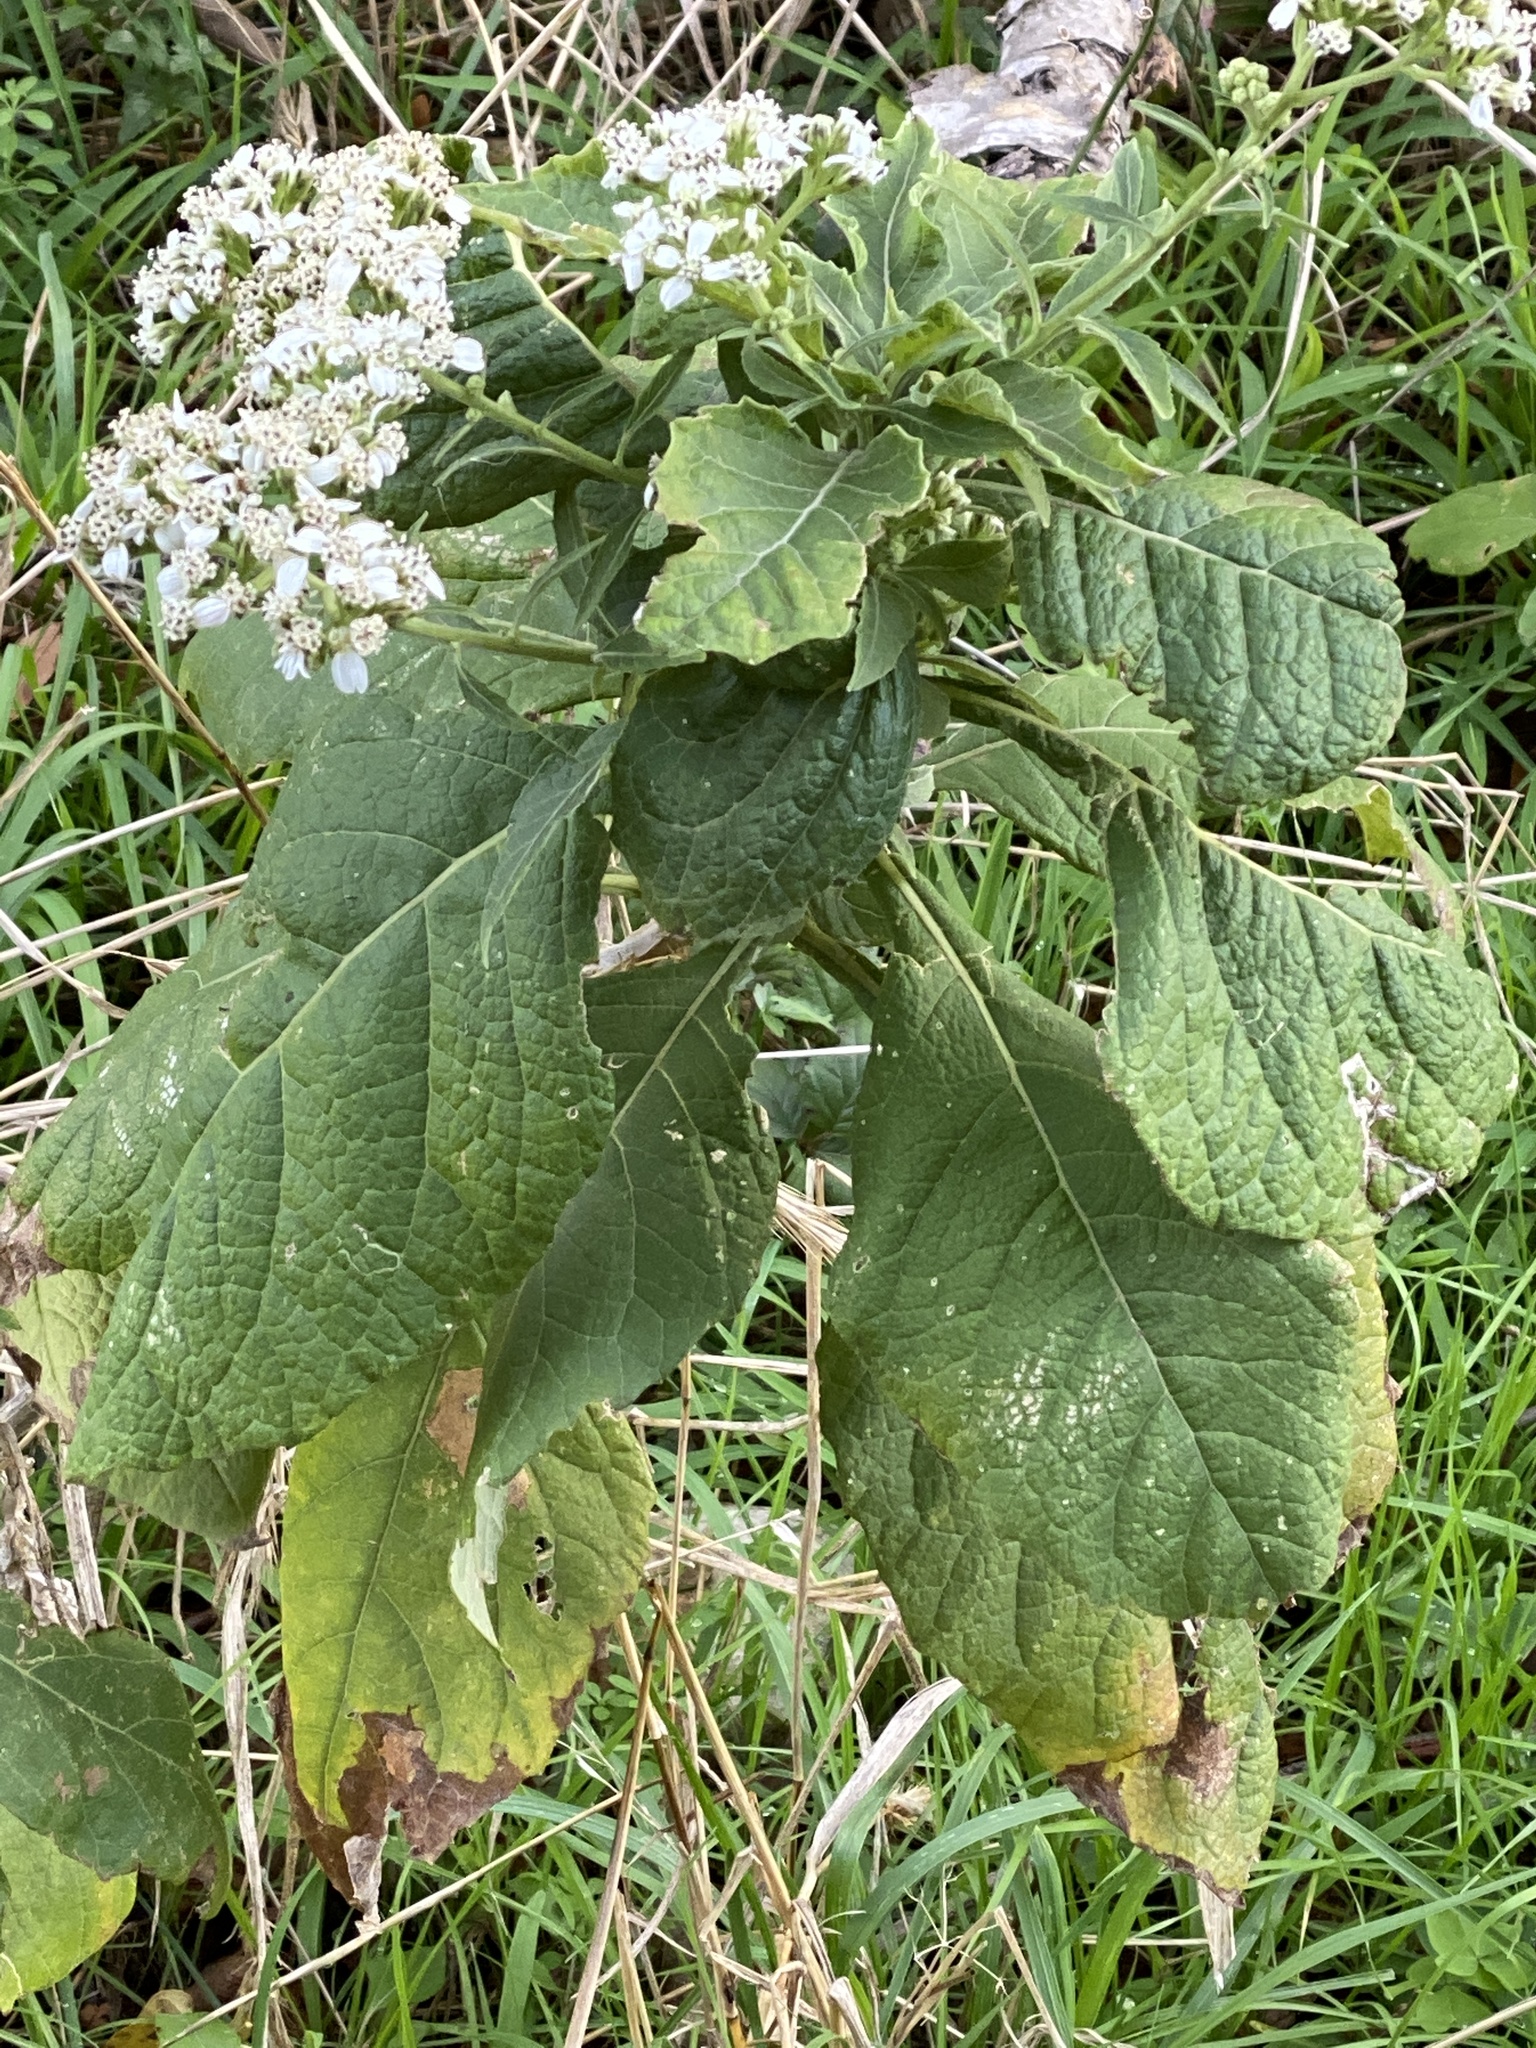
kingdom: Plantae
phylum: Tracheophyta
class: Magnoliopsida
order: Asterales
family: Asteraceae
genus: Verbesina
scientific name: Verbesina virginica
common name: Frostweed
